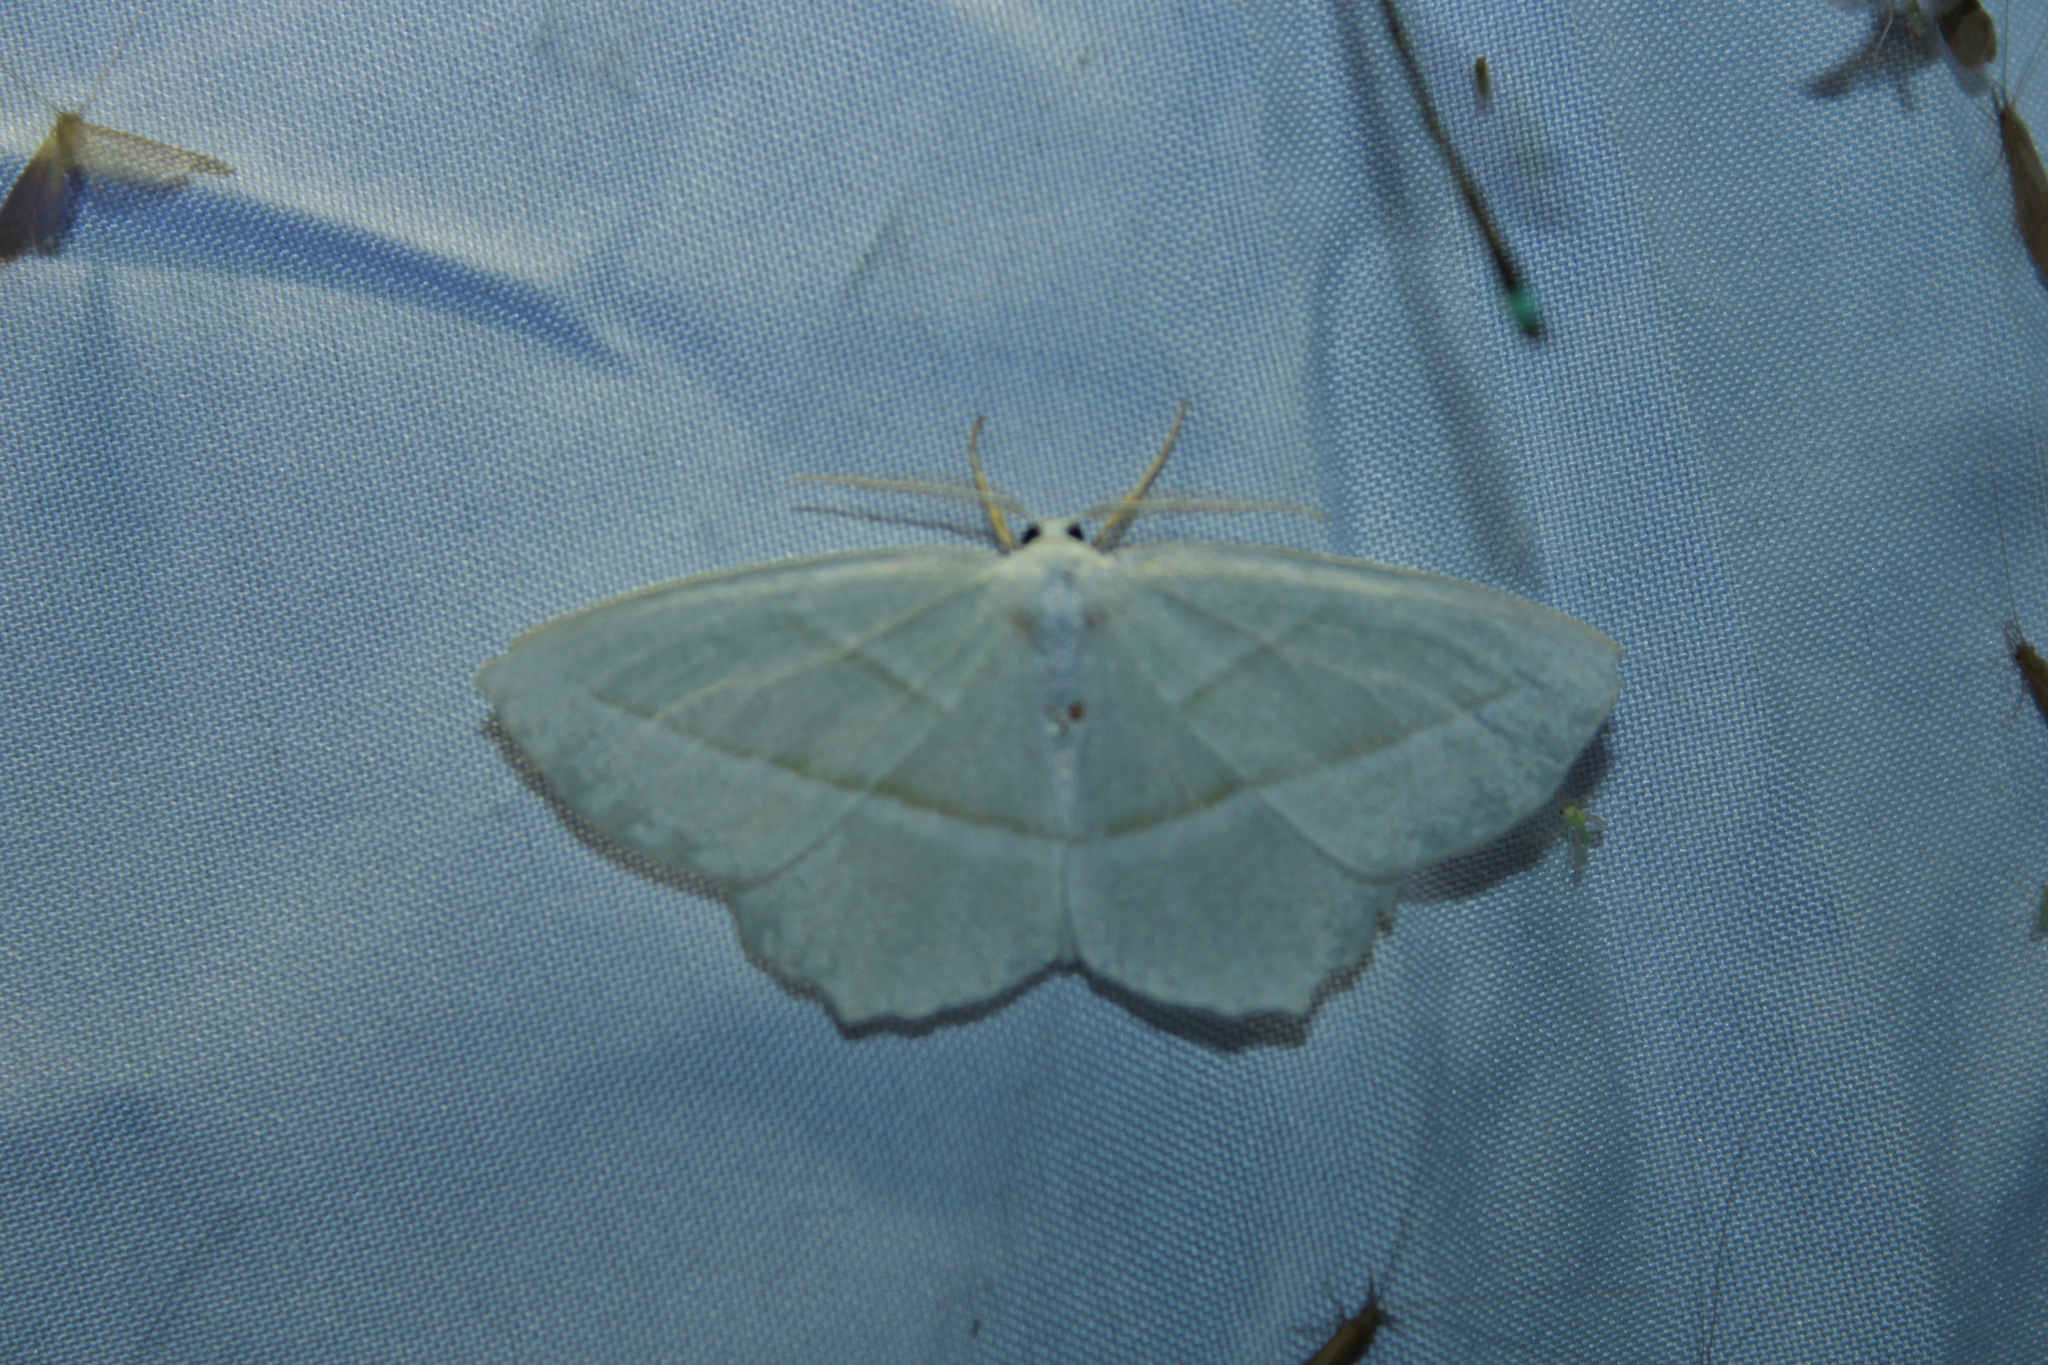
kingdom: Animalia
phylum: Arthropoda
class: Insecta
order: Lepidoptera
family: Geometridae
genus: Campaea
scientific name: Campaea perlata
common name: Fringed looper
